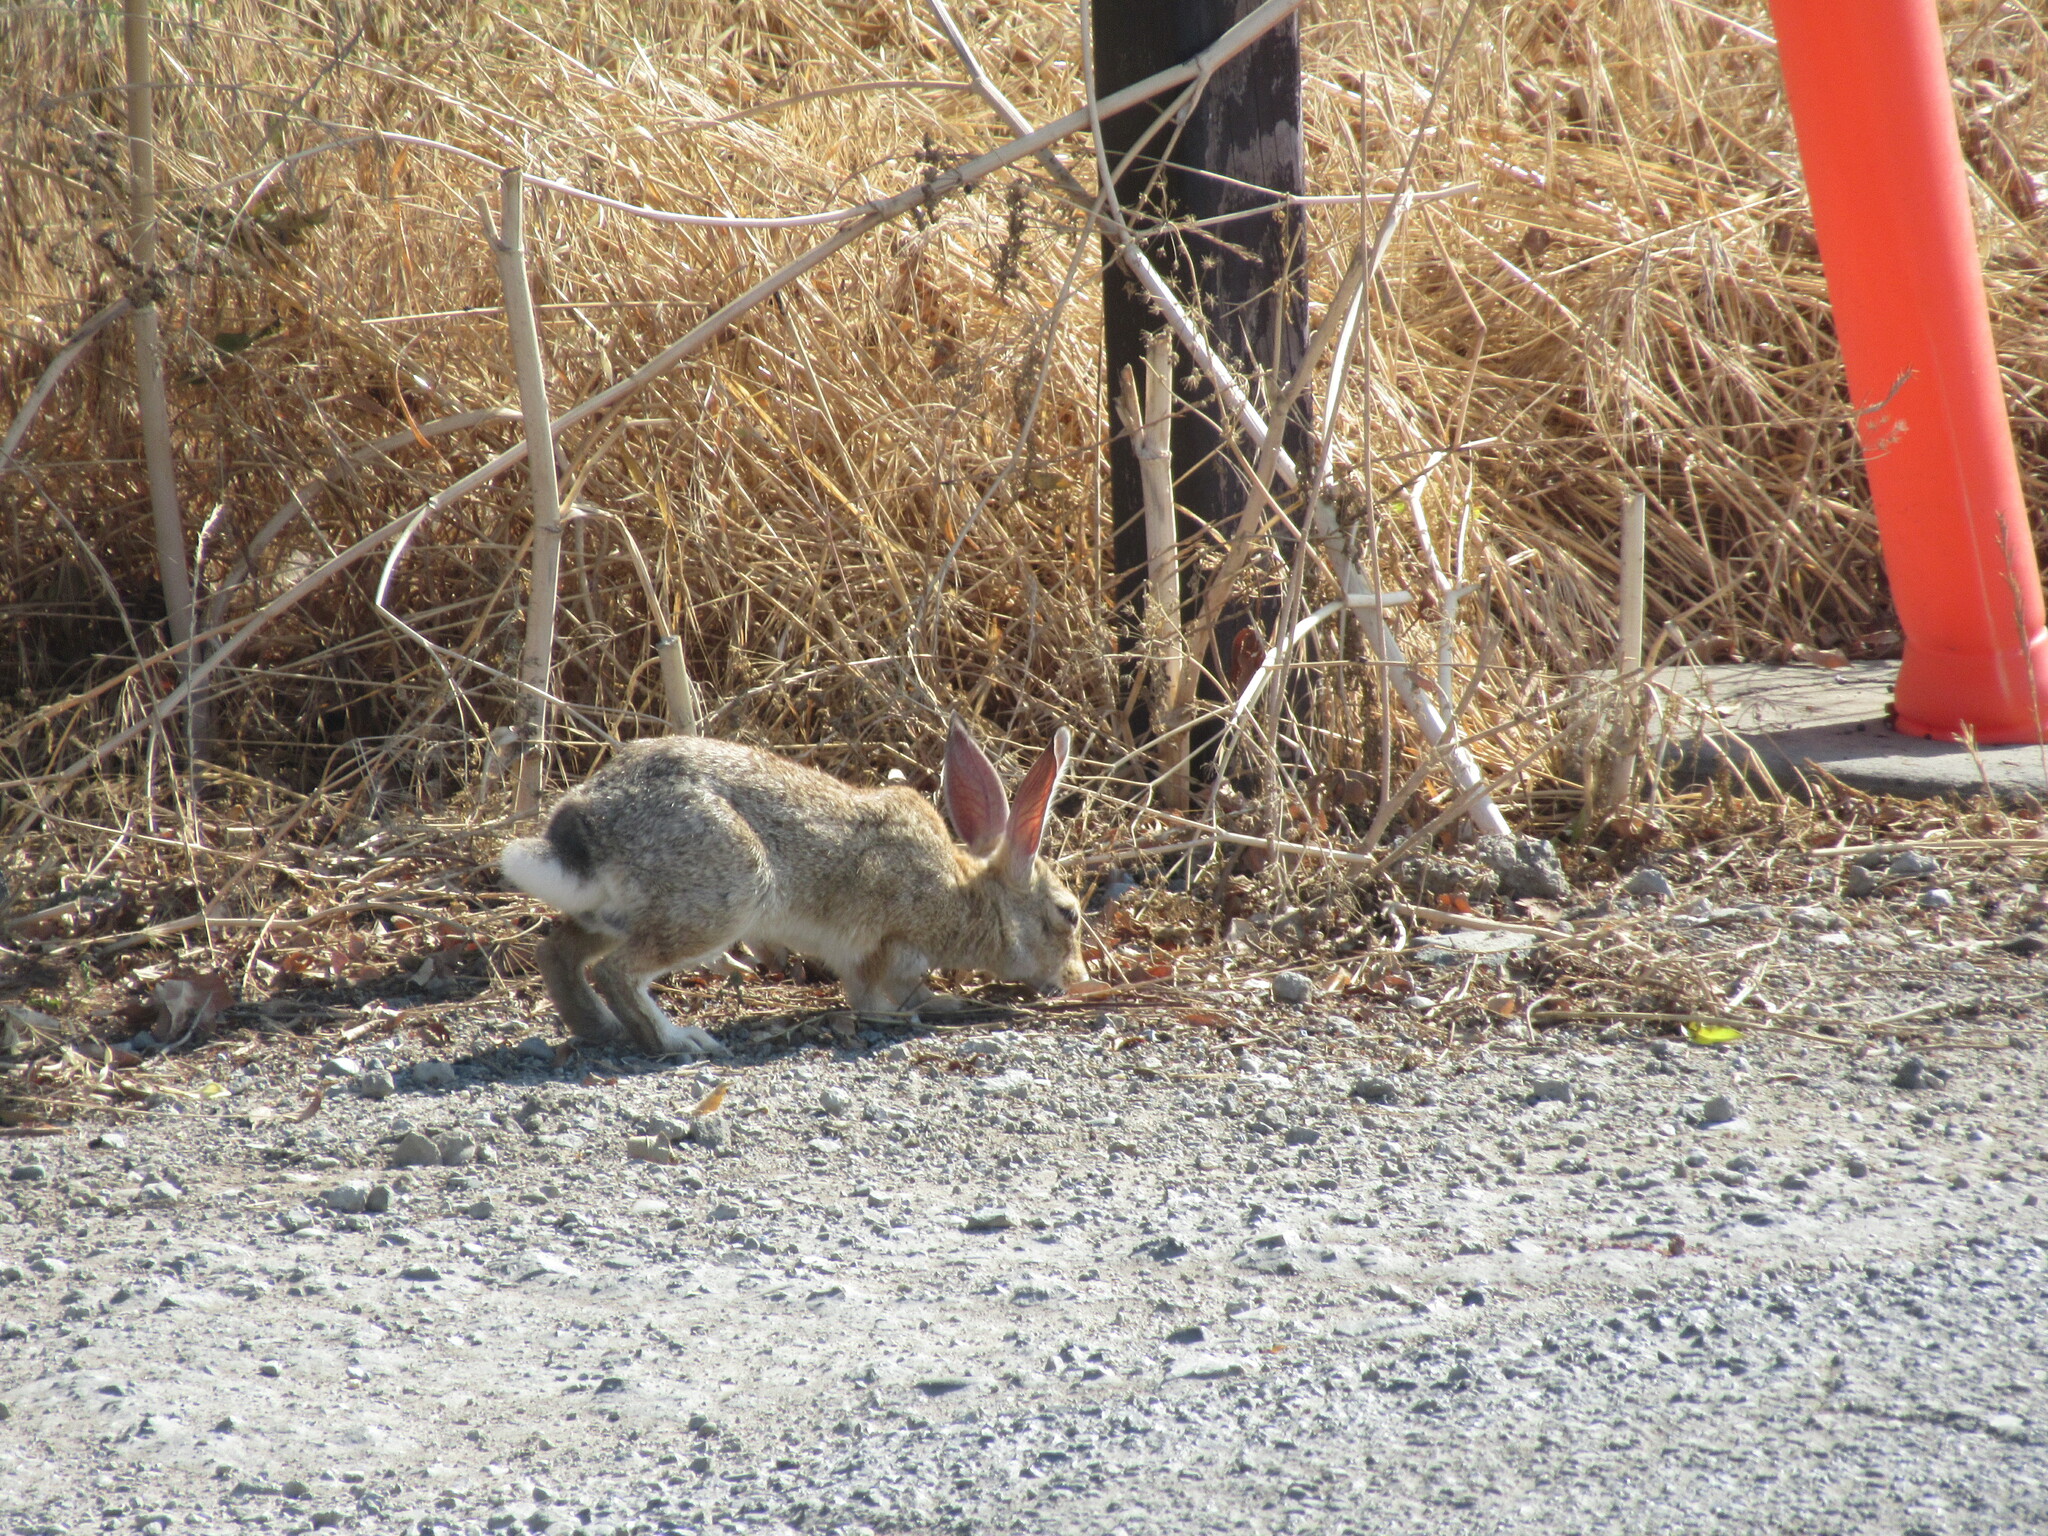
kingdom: Animalia
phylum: Chordata
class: Mammalia
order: Lagomorpha
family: Leporidae
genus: Sylvilagus
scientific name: Sylvilagus audubonii
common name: Desert cottontail
